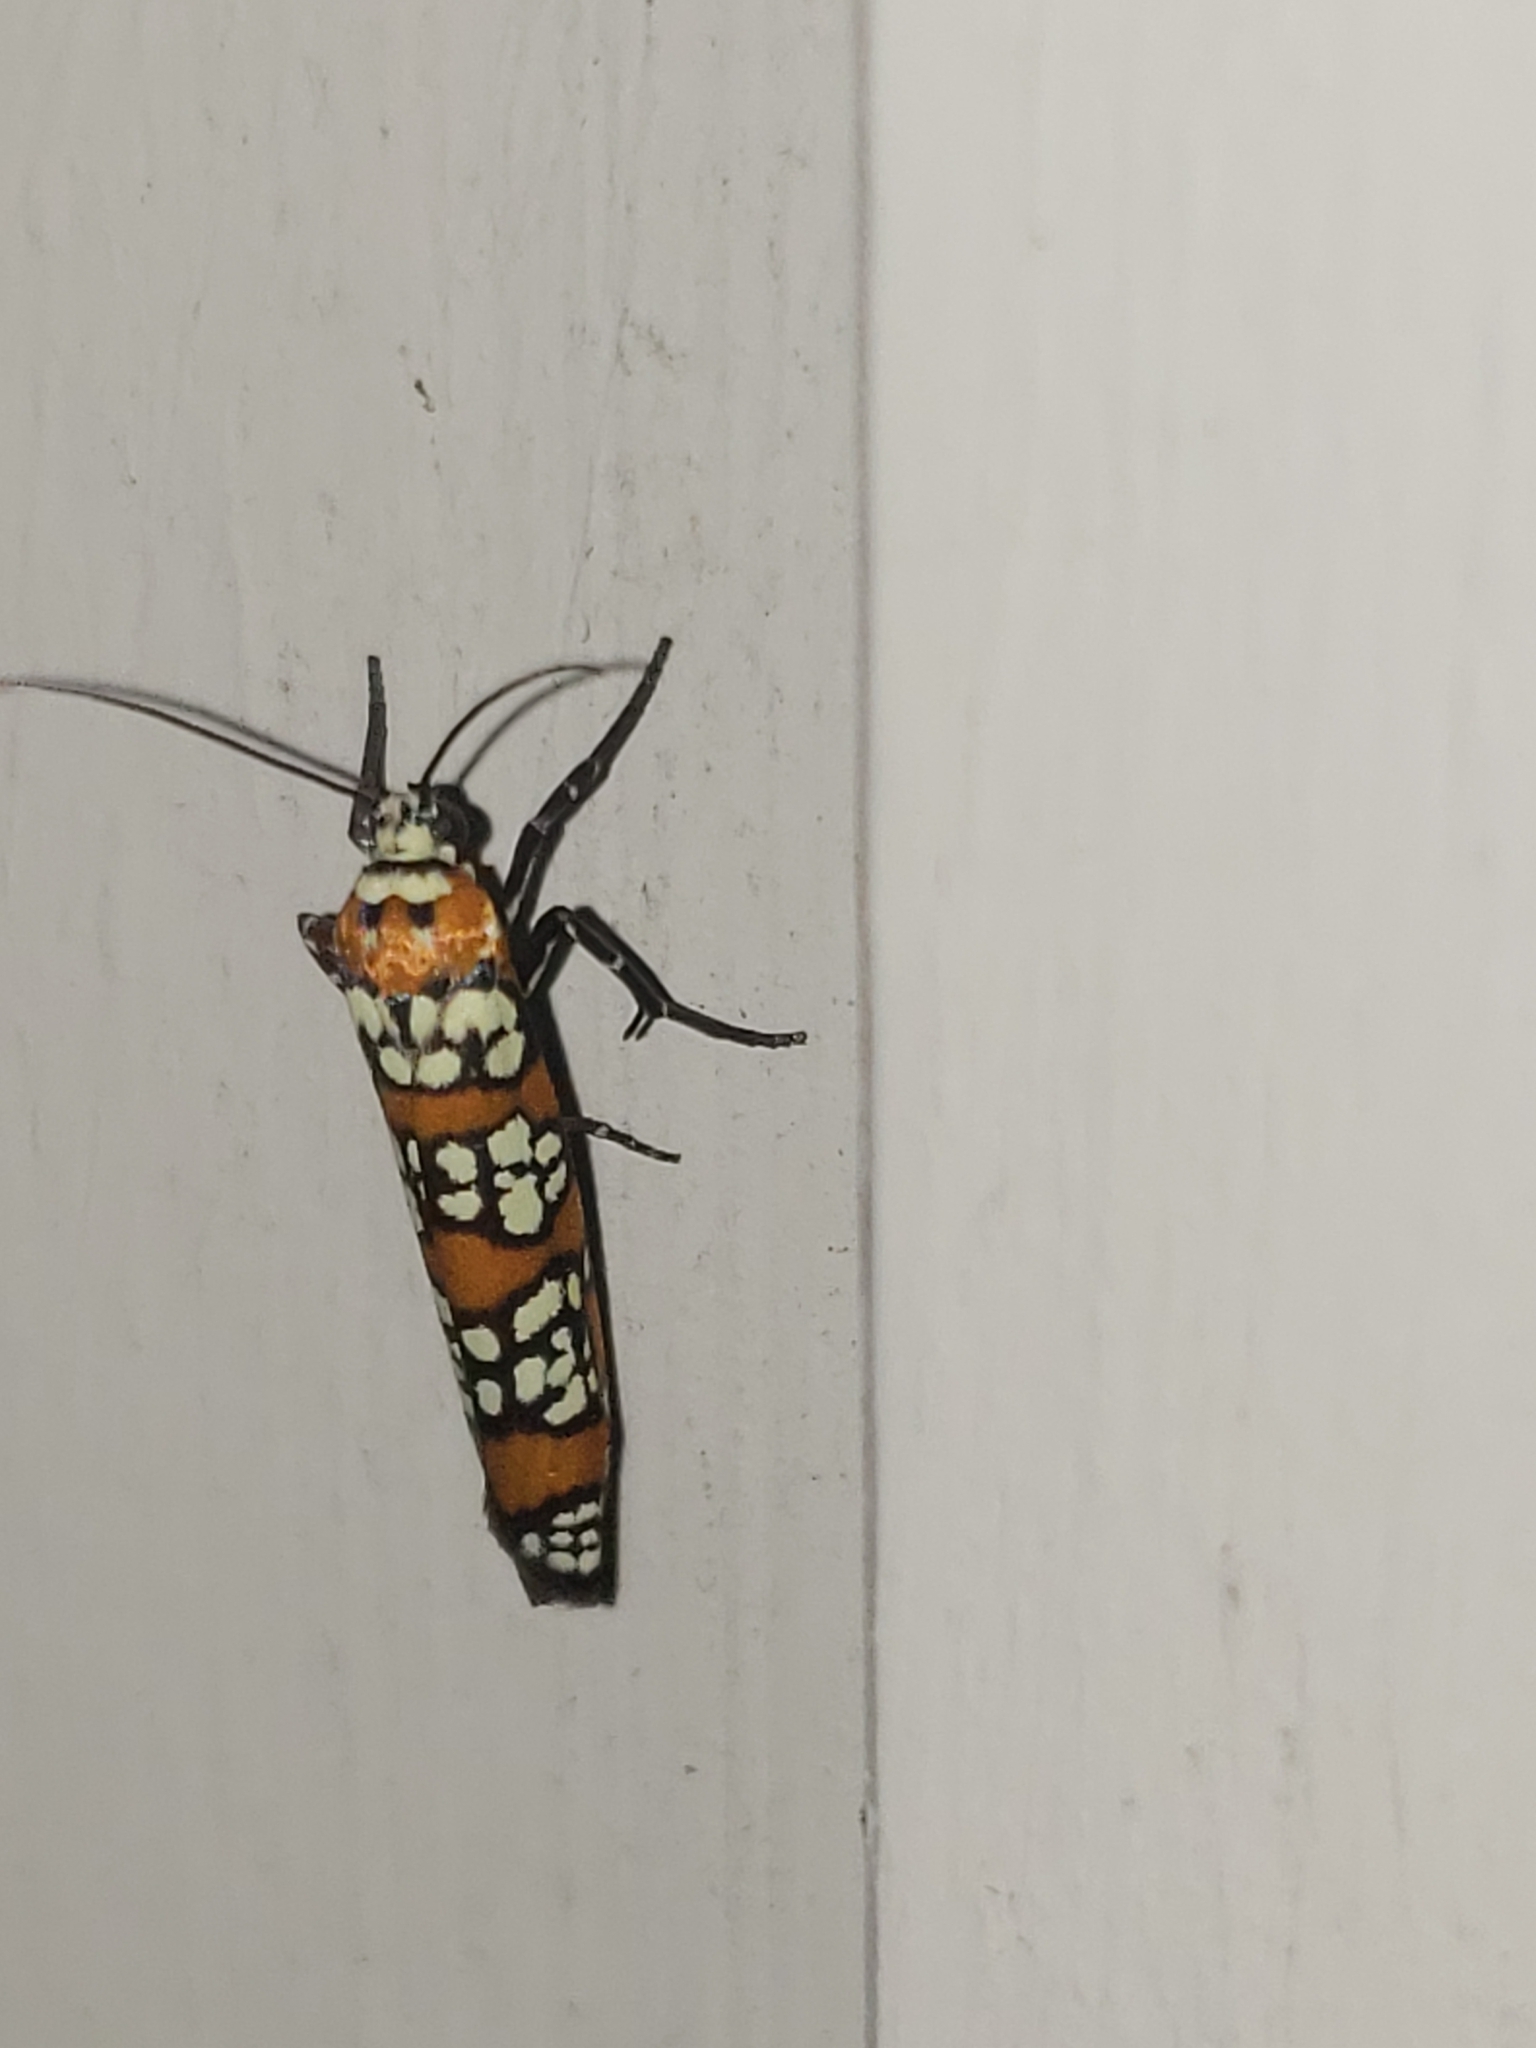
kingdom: Animalia
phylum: Arthropoda
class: Insecta
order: Lepidoptera
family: Attevidae
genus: Atteva
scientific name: Atteva punctella
